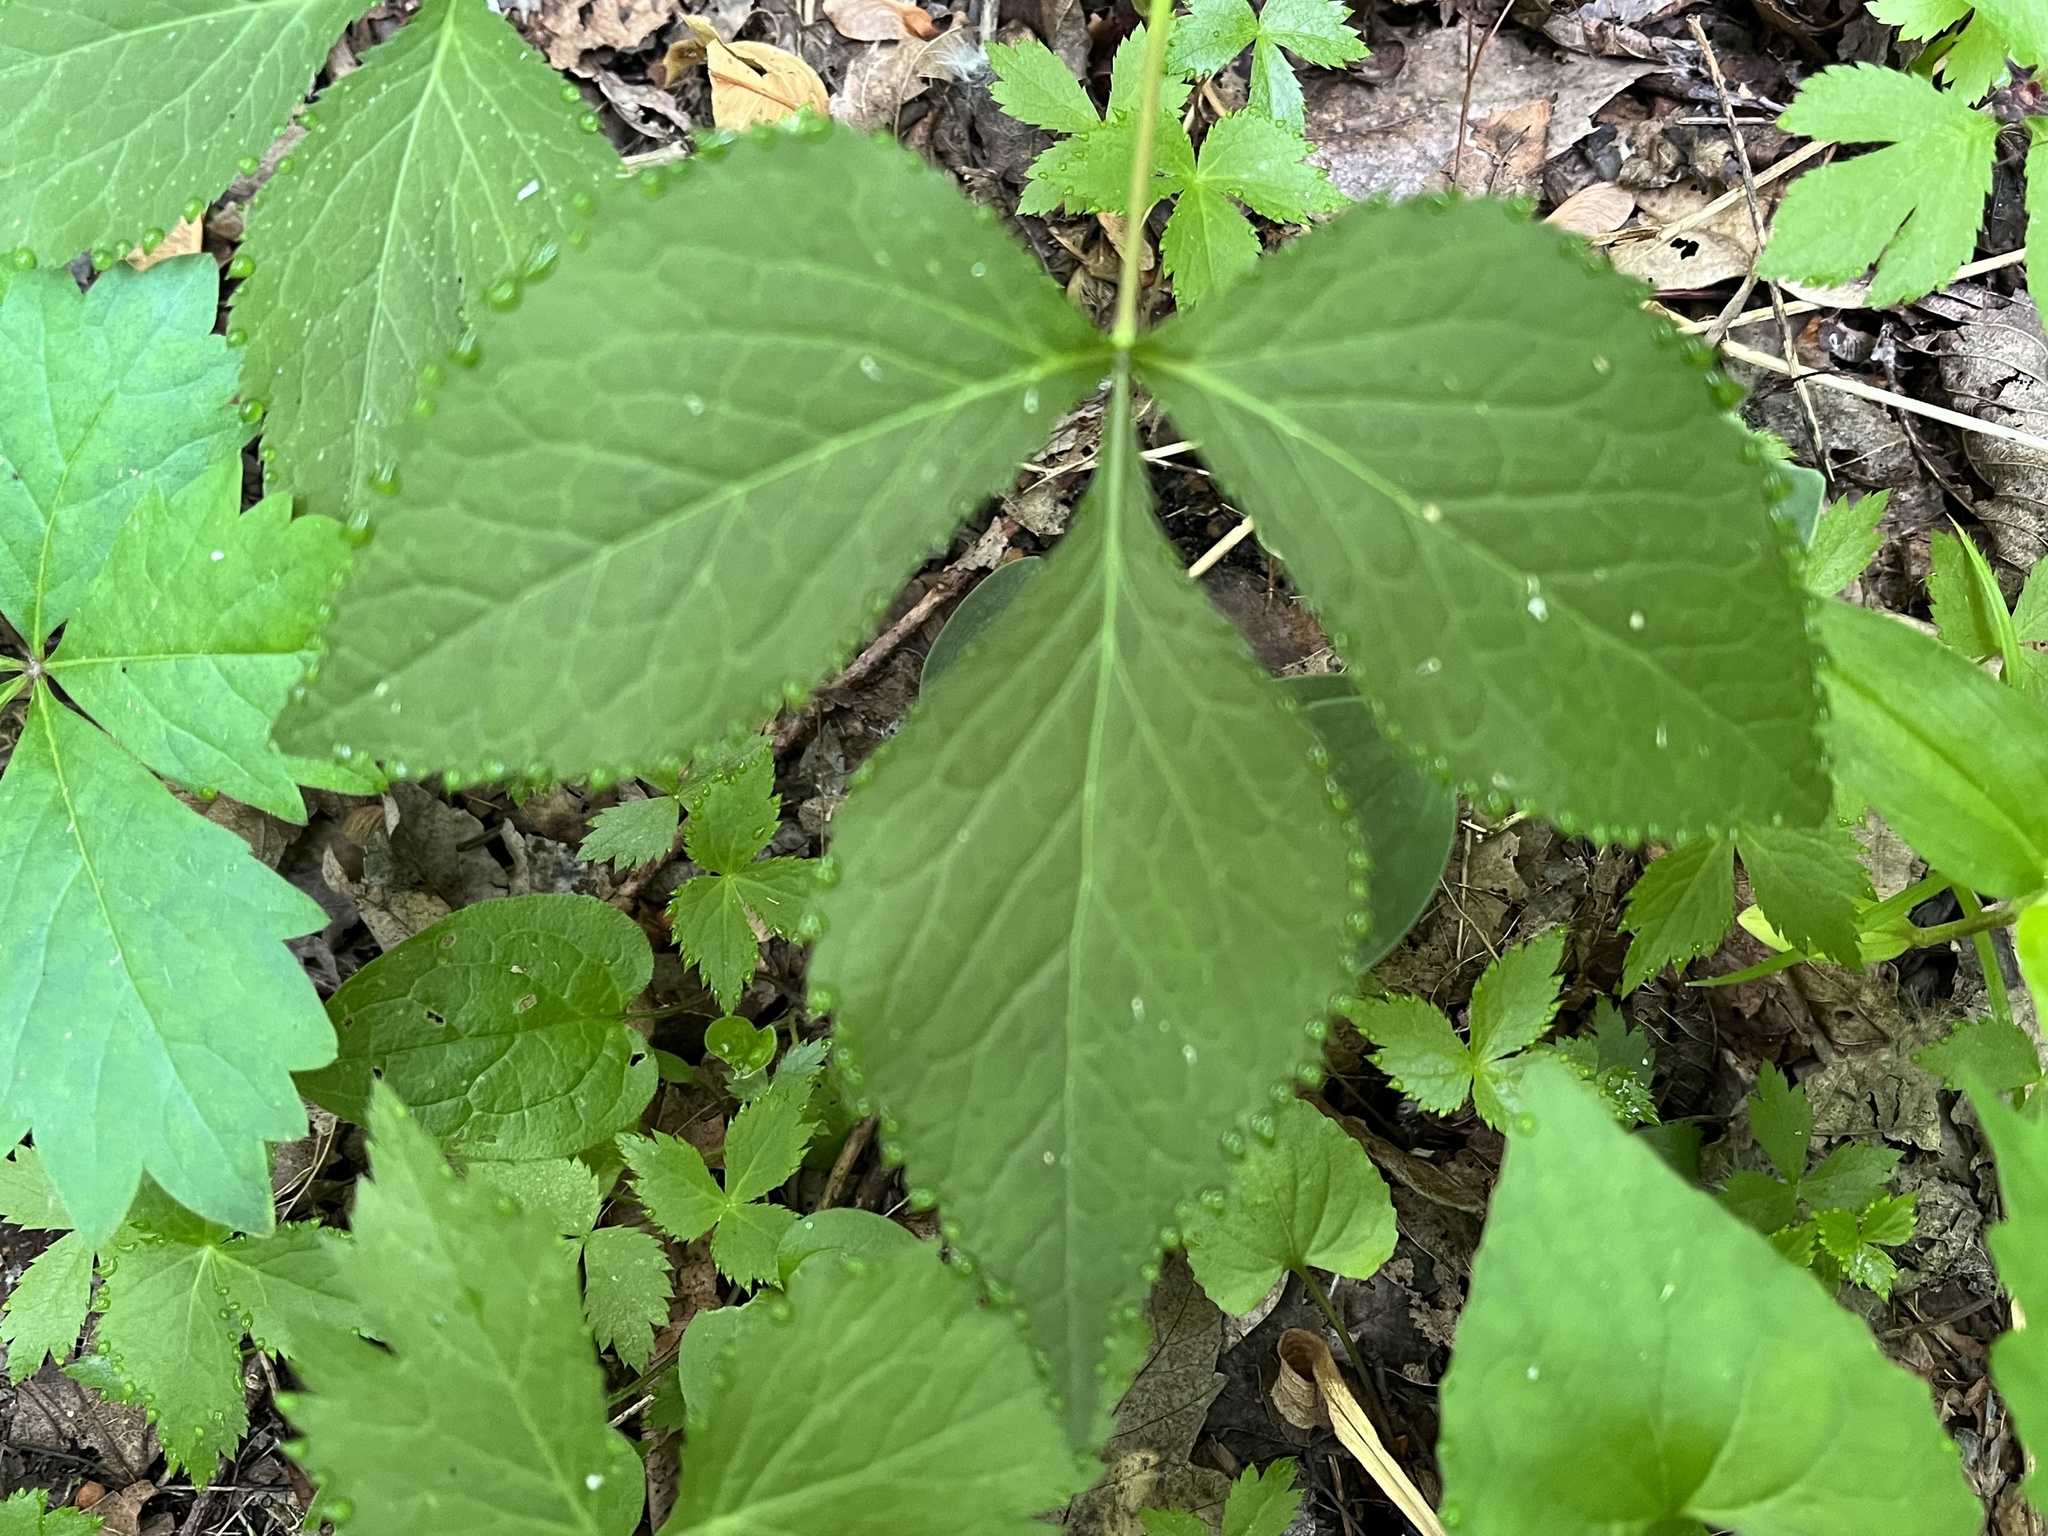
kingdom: Plantae
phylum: Tracheophyta
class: Magnoliopsida
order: Apiales
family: Apiaceae
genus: Cryptotaenia
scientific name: Cryptotaenia canadensis
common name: Honewort
